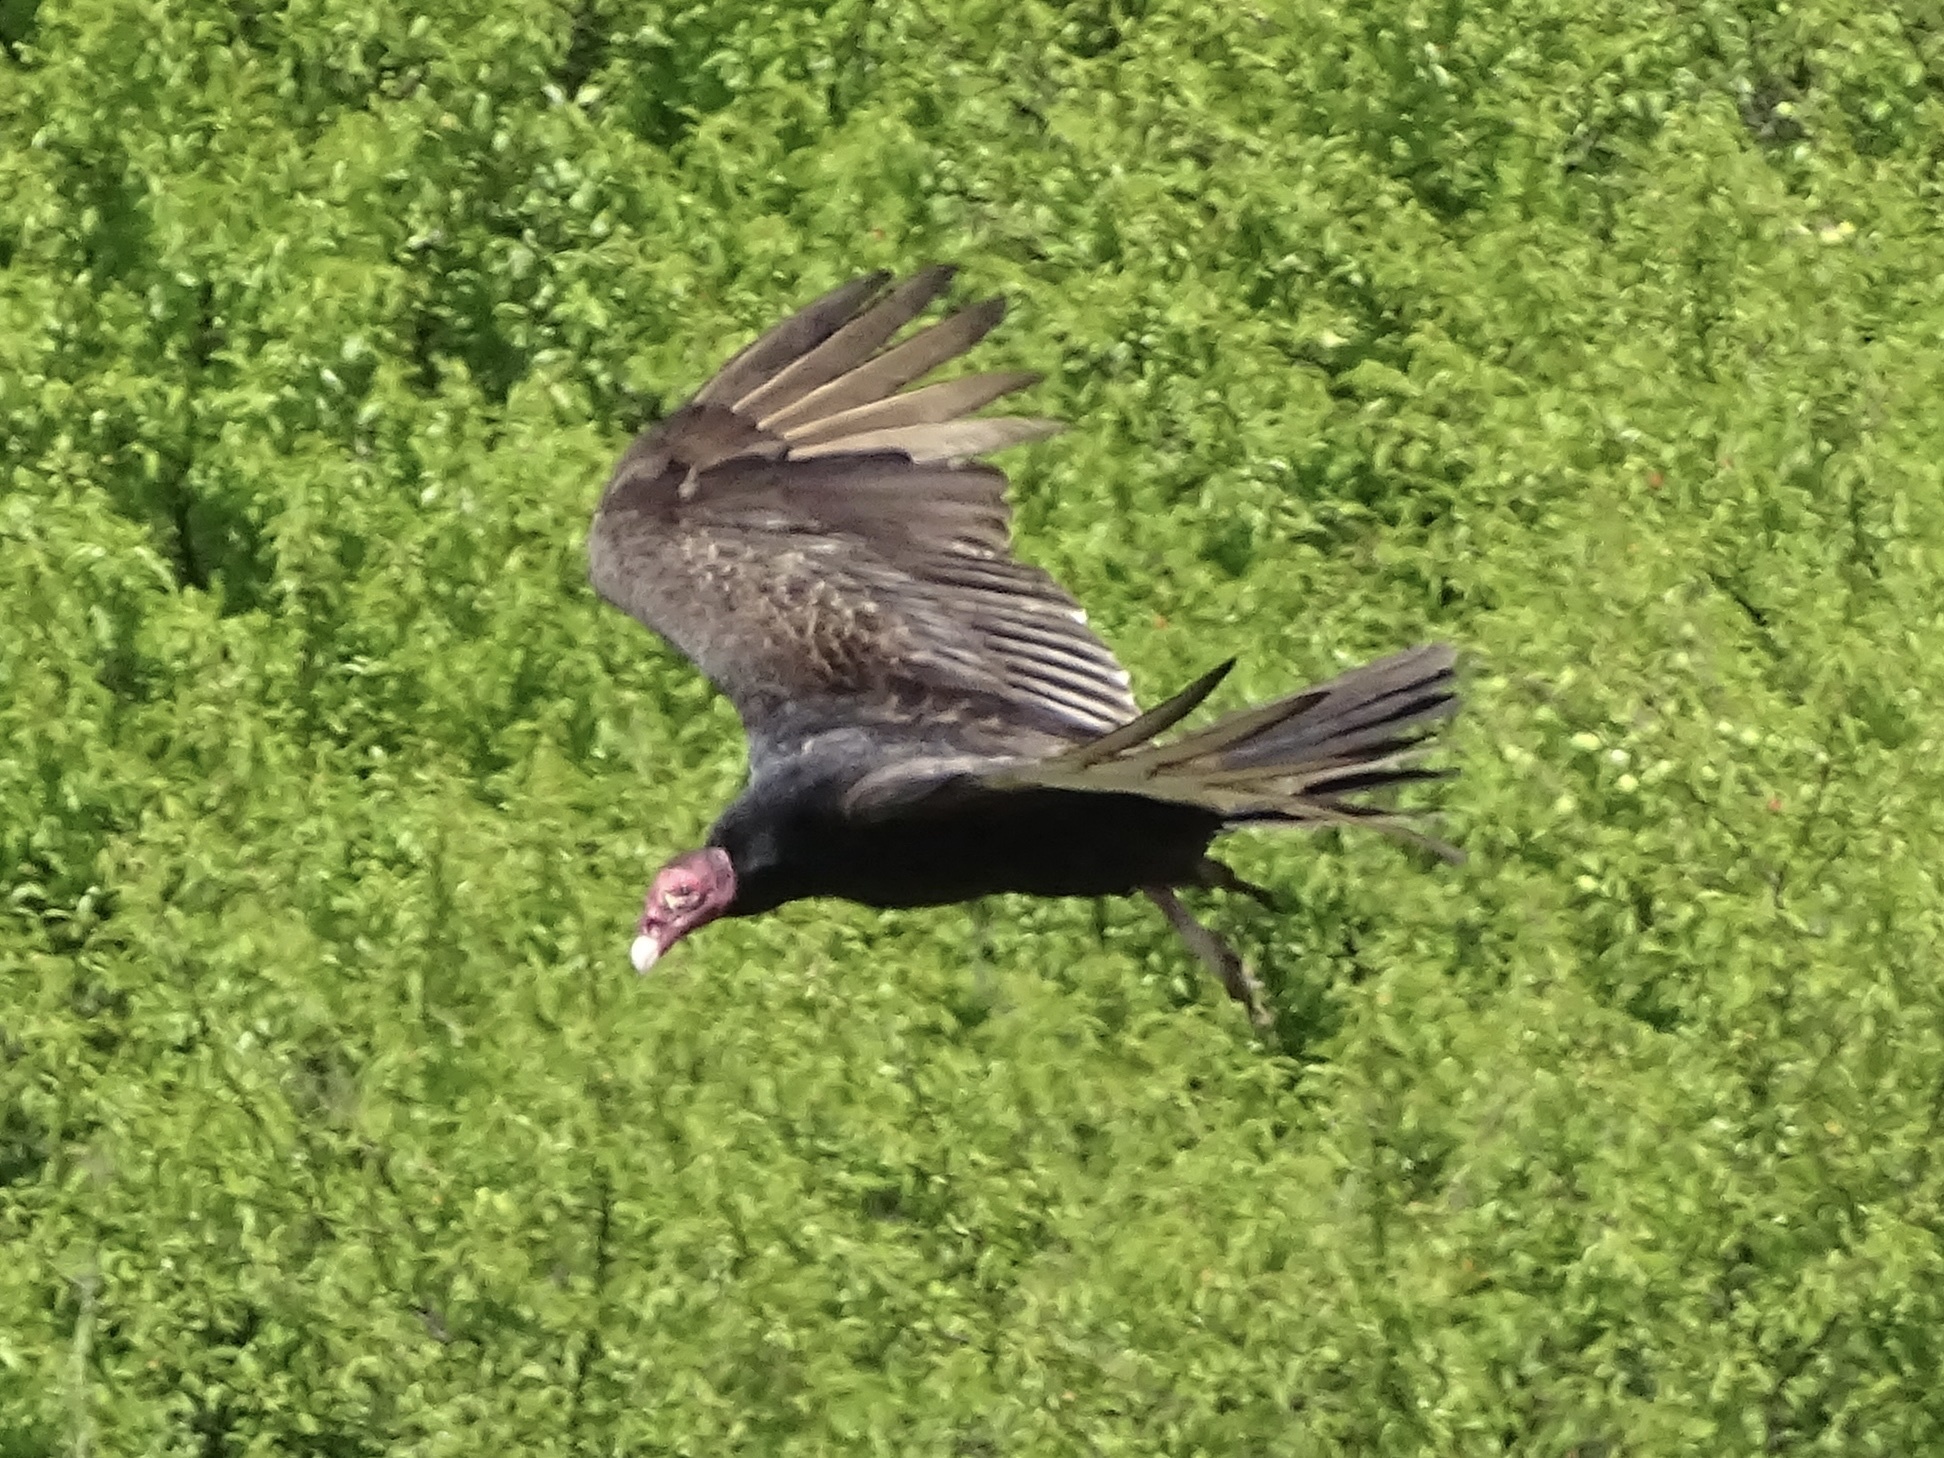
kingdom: Animalia
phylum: Chordata
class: Aves
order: Accipitriformes
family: Cathartidae
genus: Cathartes
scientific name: Cathartes aura
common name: Turkey vulture
